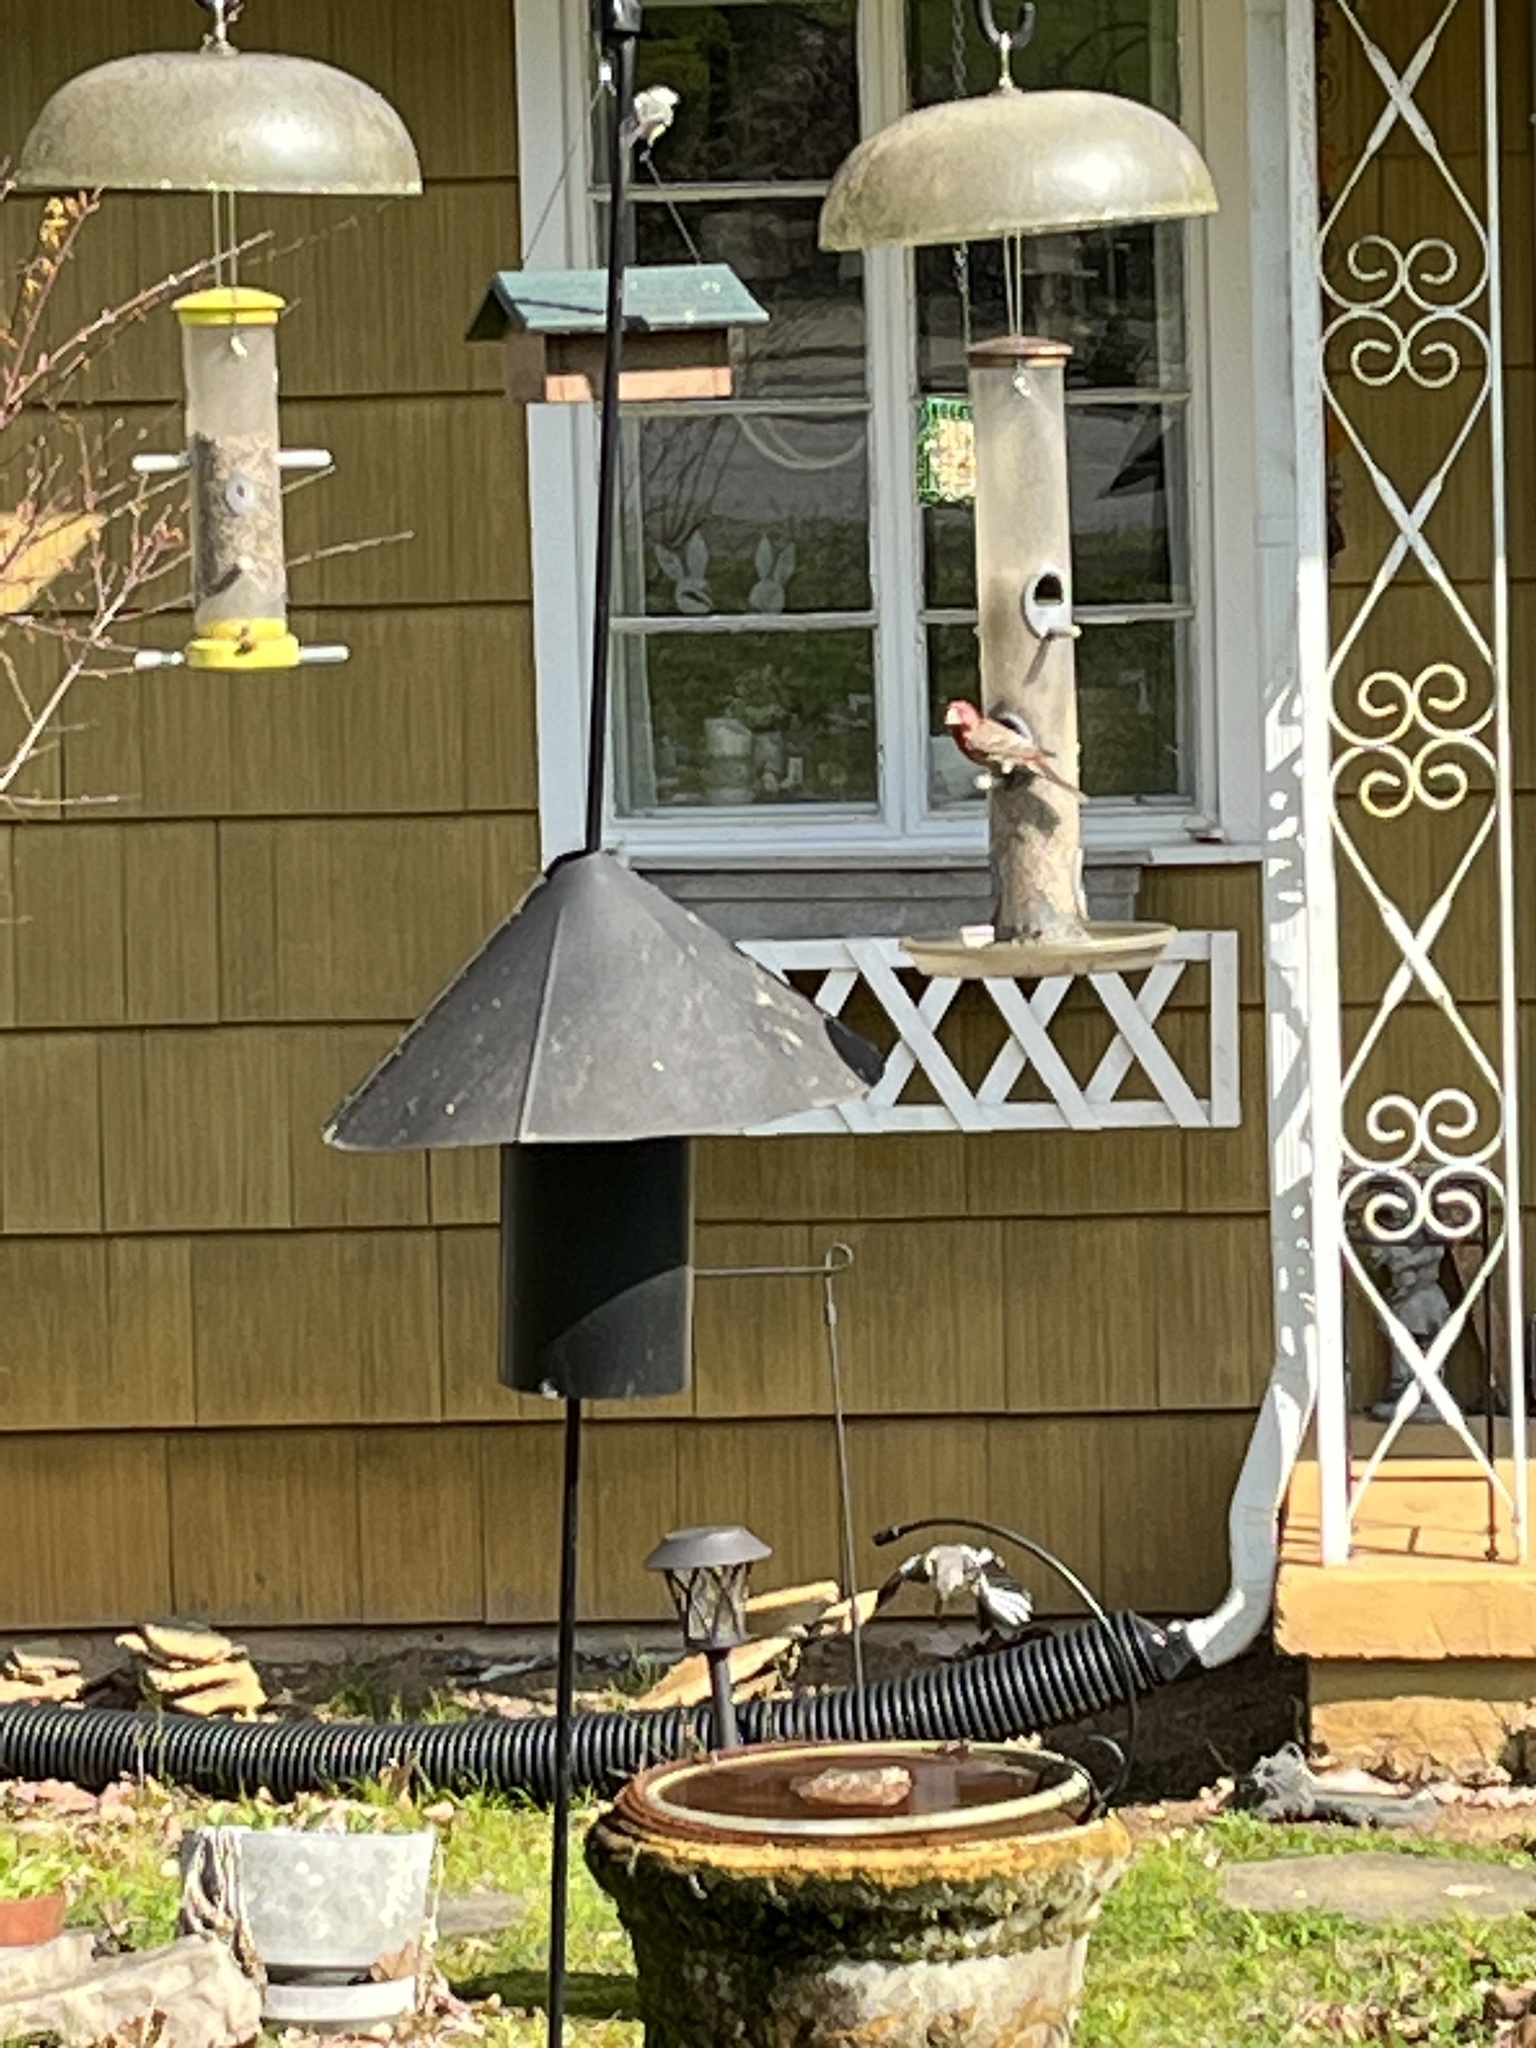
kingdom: Animalia
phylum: Chordata
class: Aves
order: Passeriformes
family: Fringillidae
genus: Haemorhous
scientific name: Haemorhous mexicanus
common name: House finch
